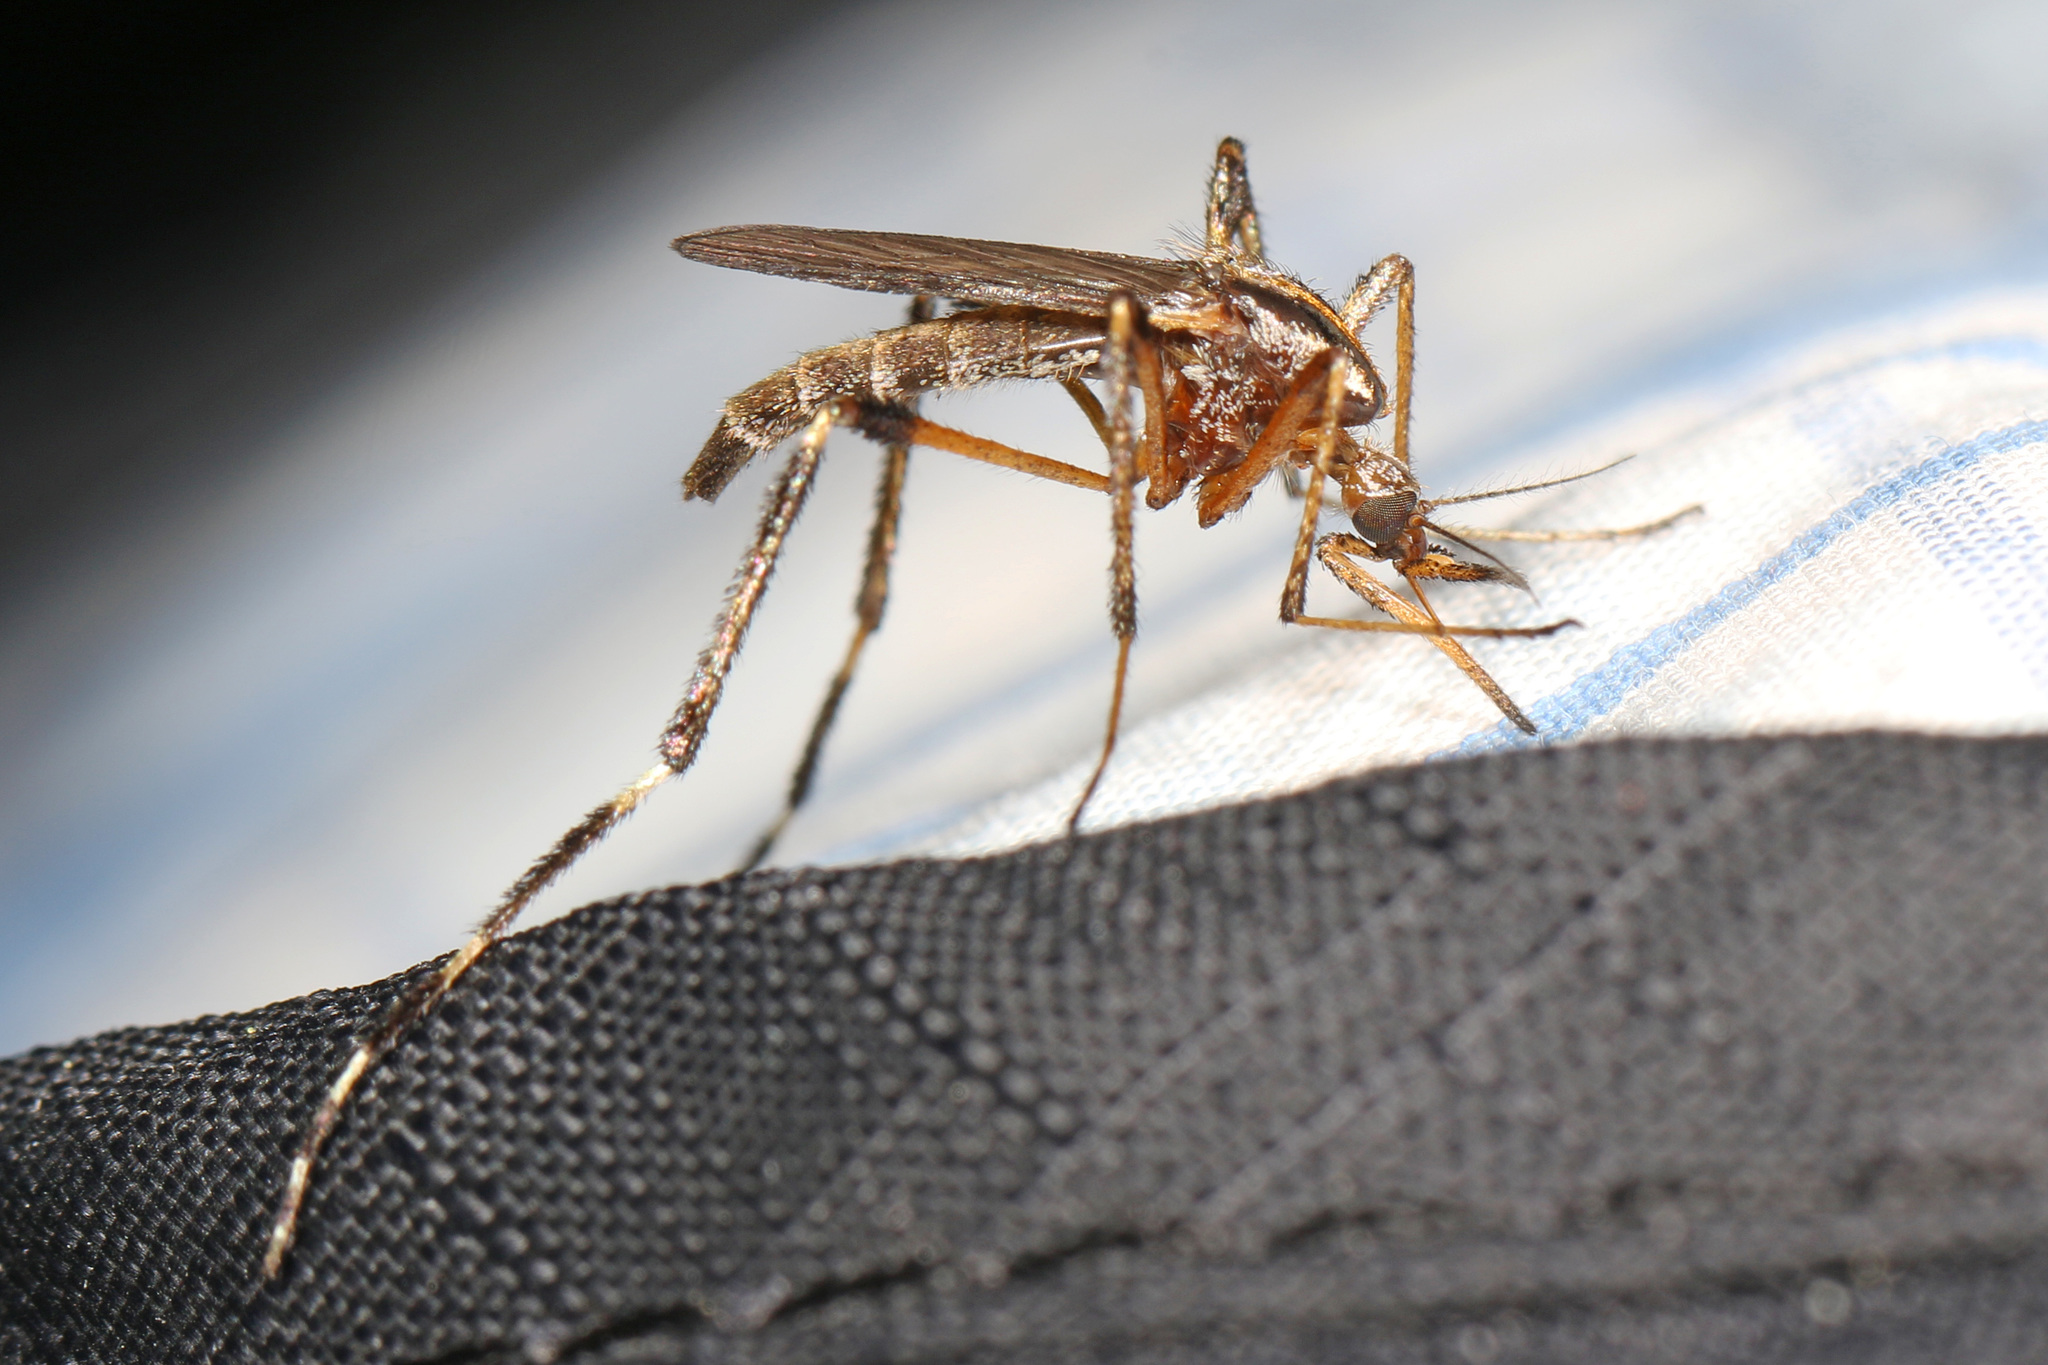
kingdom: Animalia
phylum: Arthropoda
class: Insecta
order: Diptera
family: Culicidae
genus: Psorophora
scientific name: Psorophora ciliata
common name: Gallinipper
